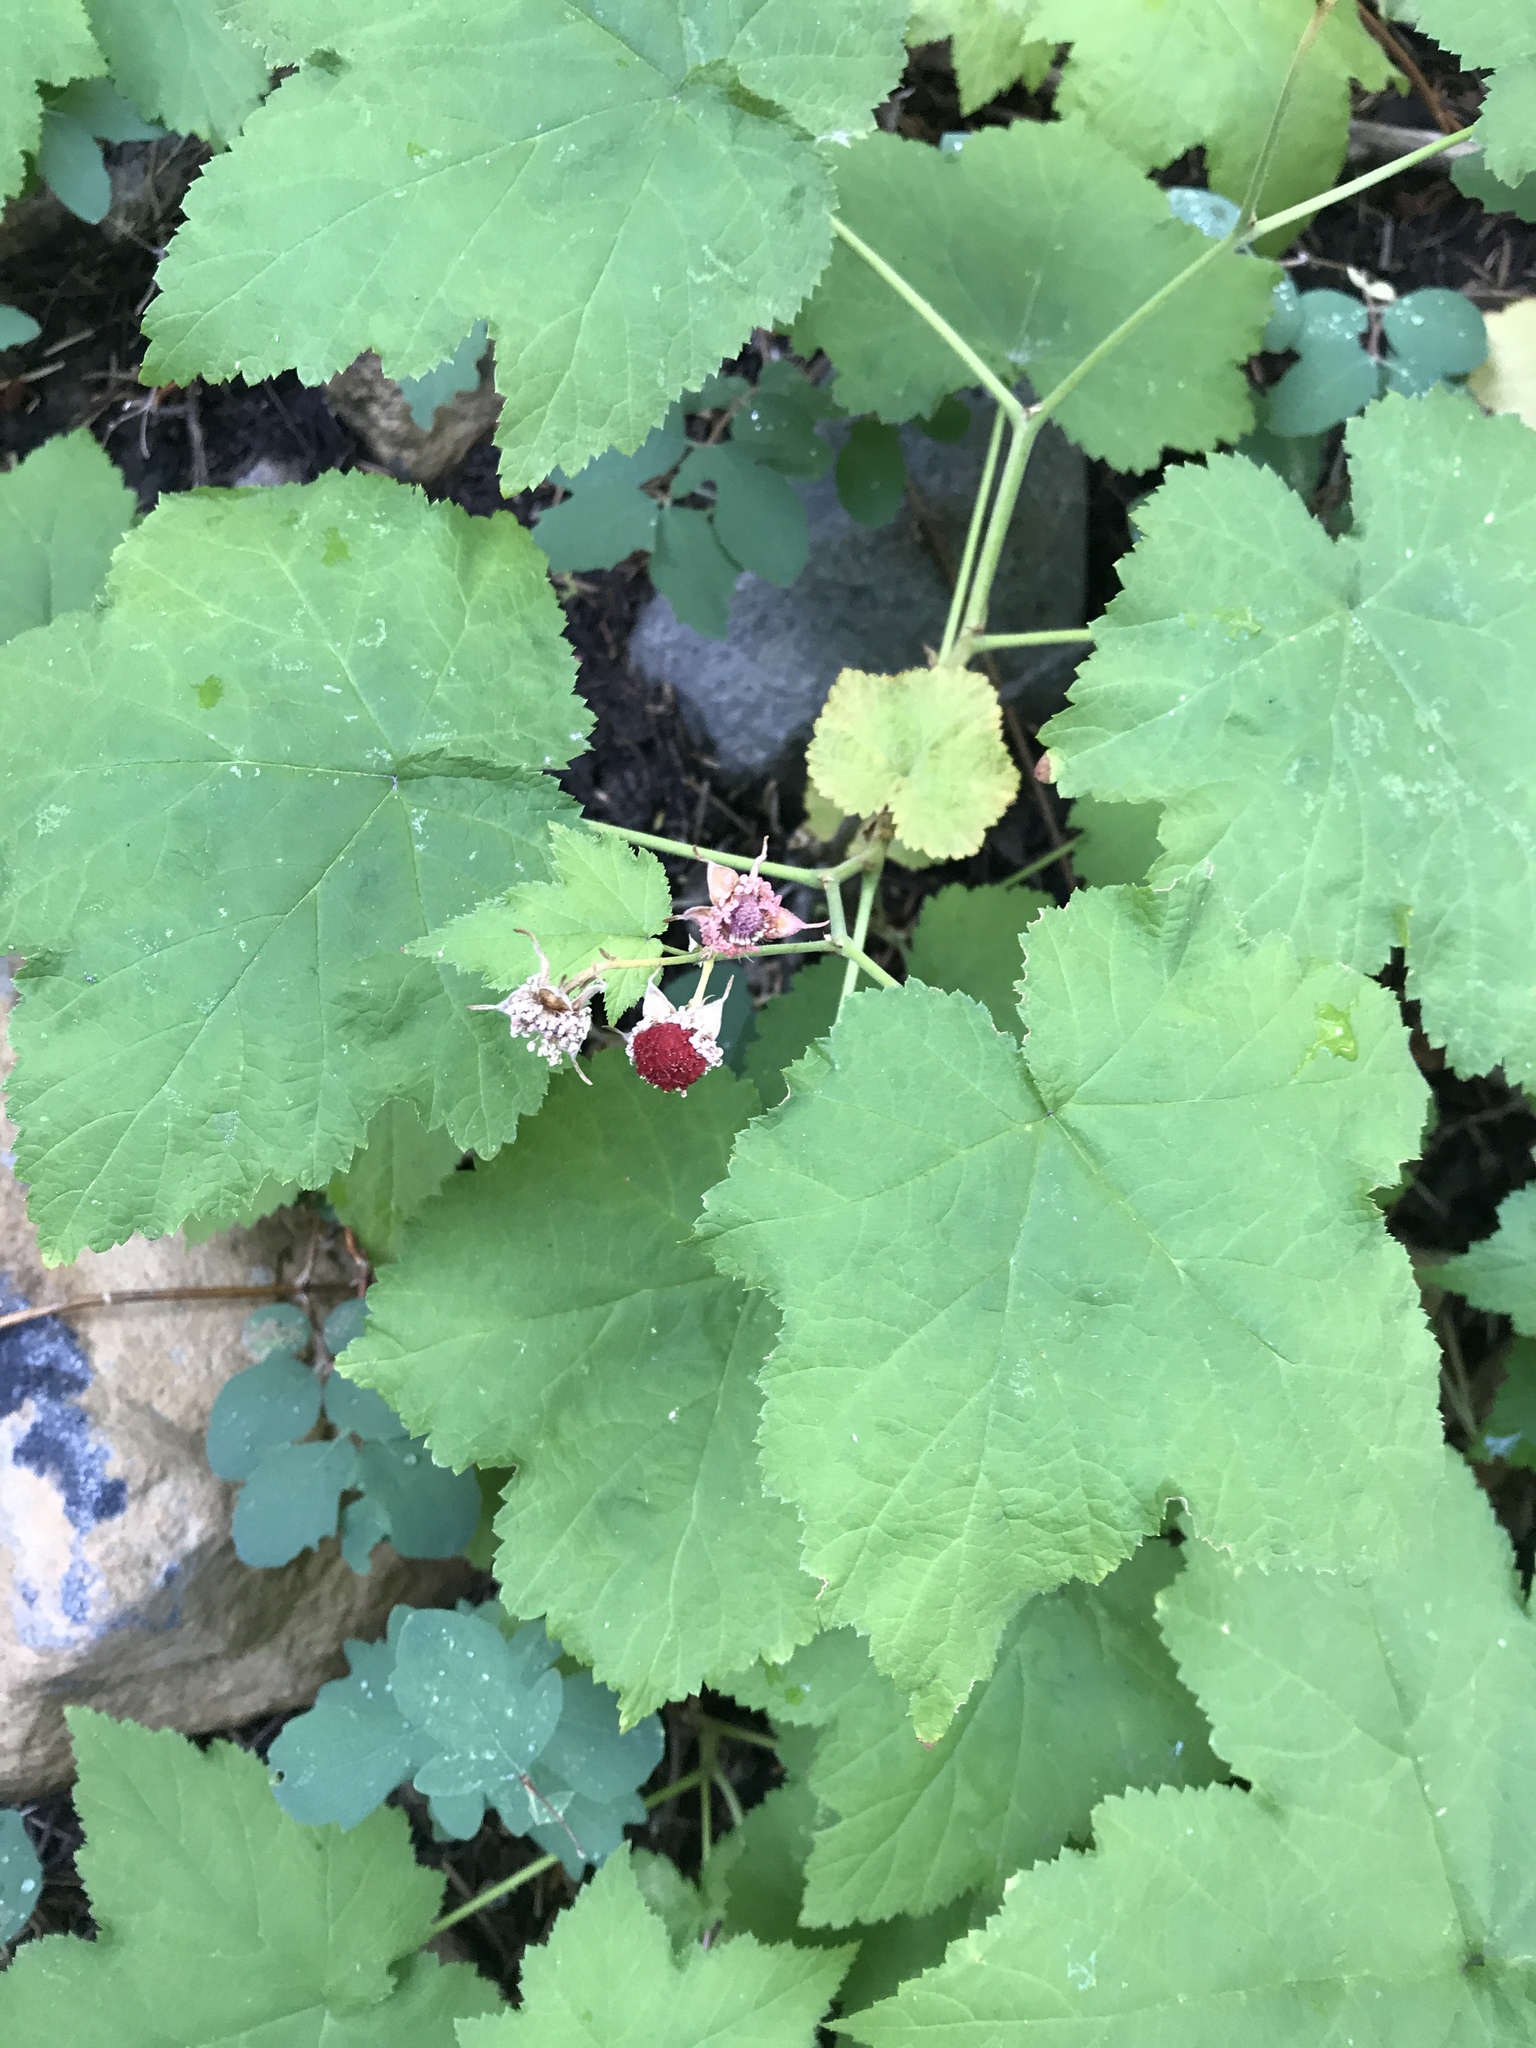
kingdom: Plantae
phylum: Tracheophyta
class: Magnoliopsida
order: Rosales
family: Rosaceae
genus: Rubus
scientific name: Rubus parviflorus
